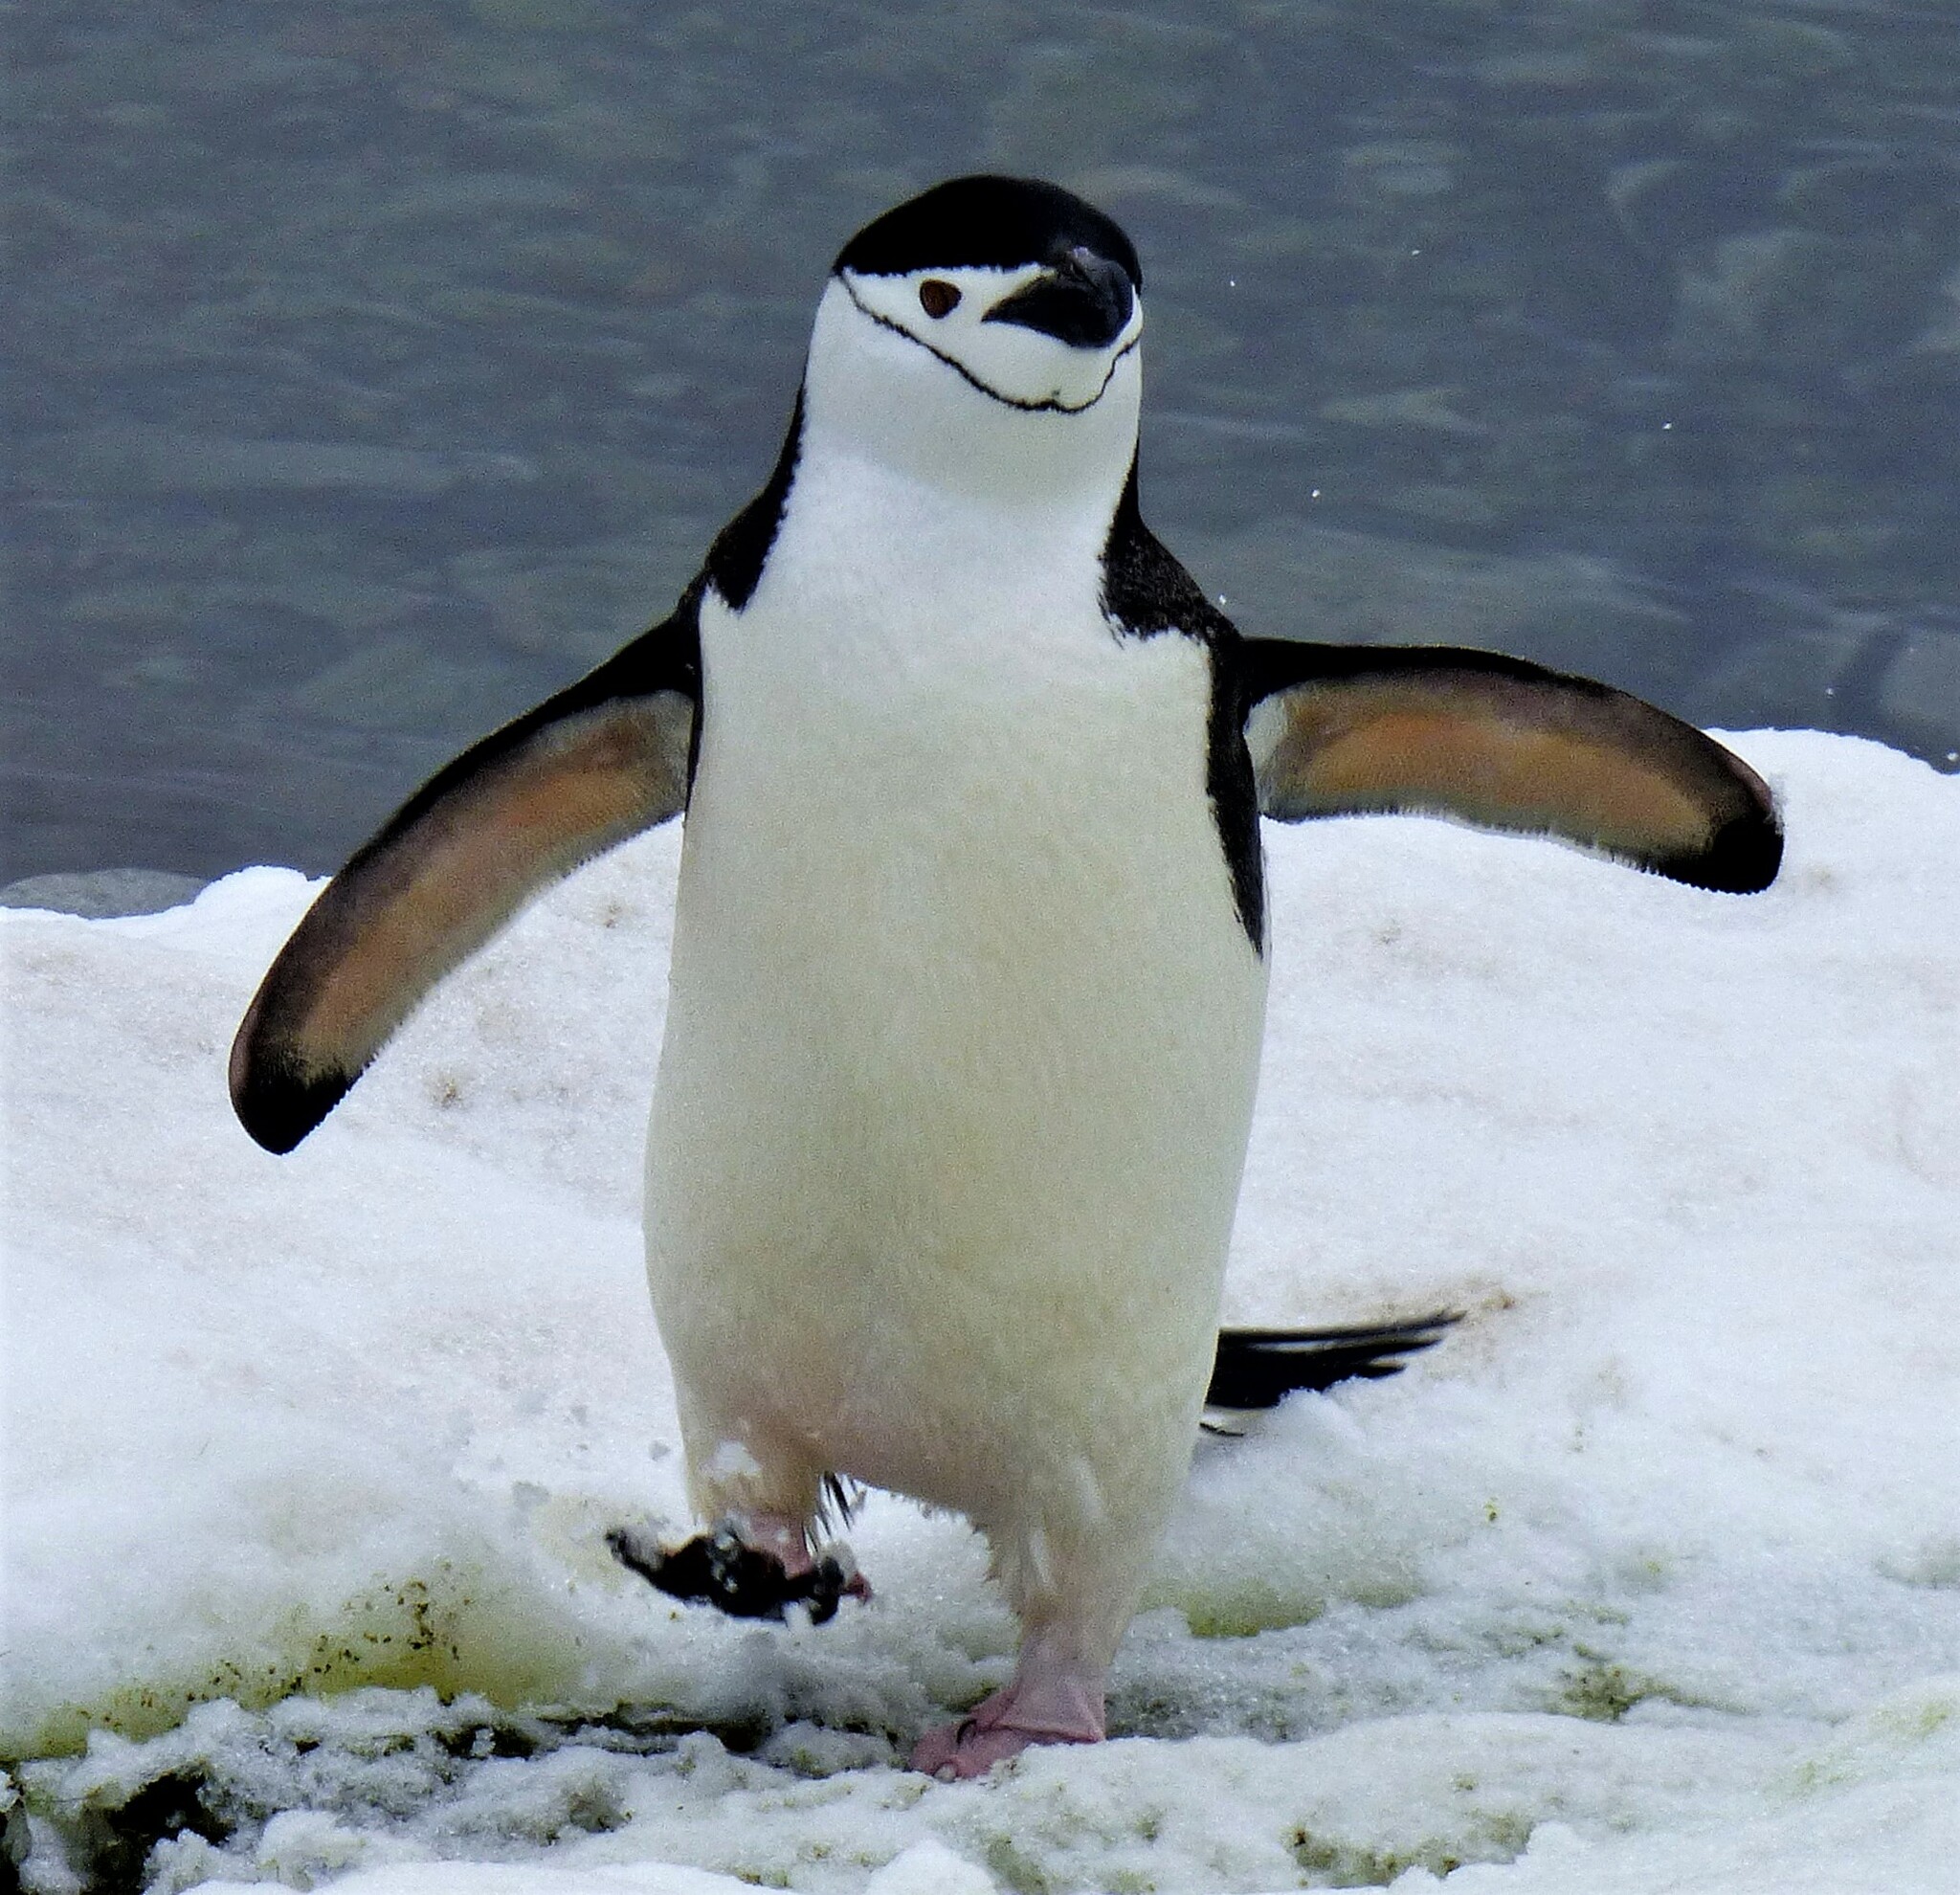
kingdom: Animalia
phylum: Chordata
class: Aves
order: Sphenisciformes
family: Spheniscidae
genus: Pygoscelis
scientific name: Pygoscelis antarcticus
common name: Chinstrap penguin
